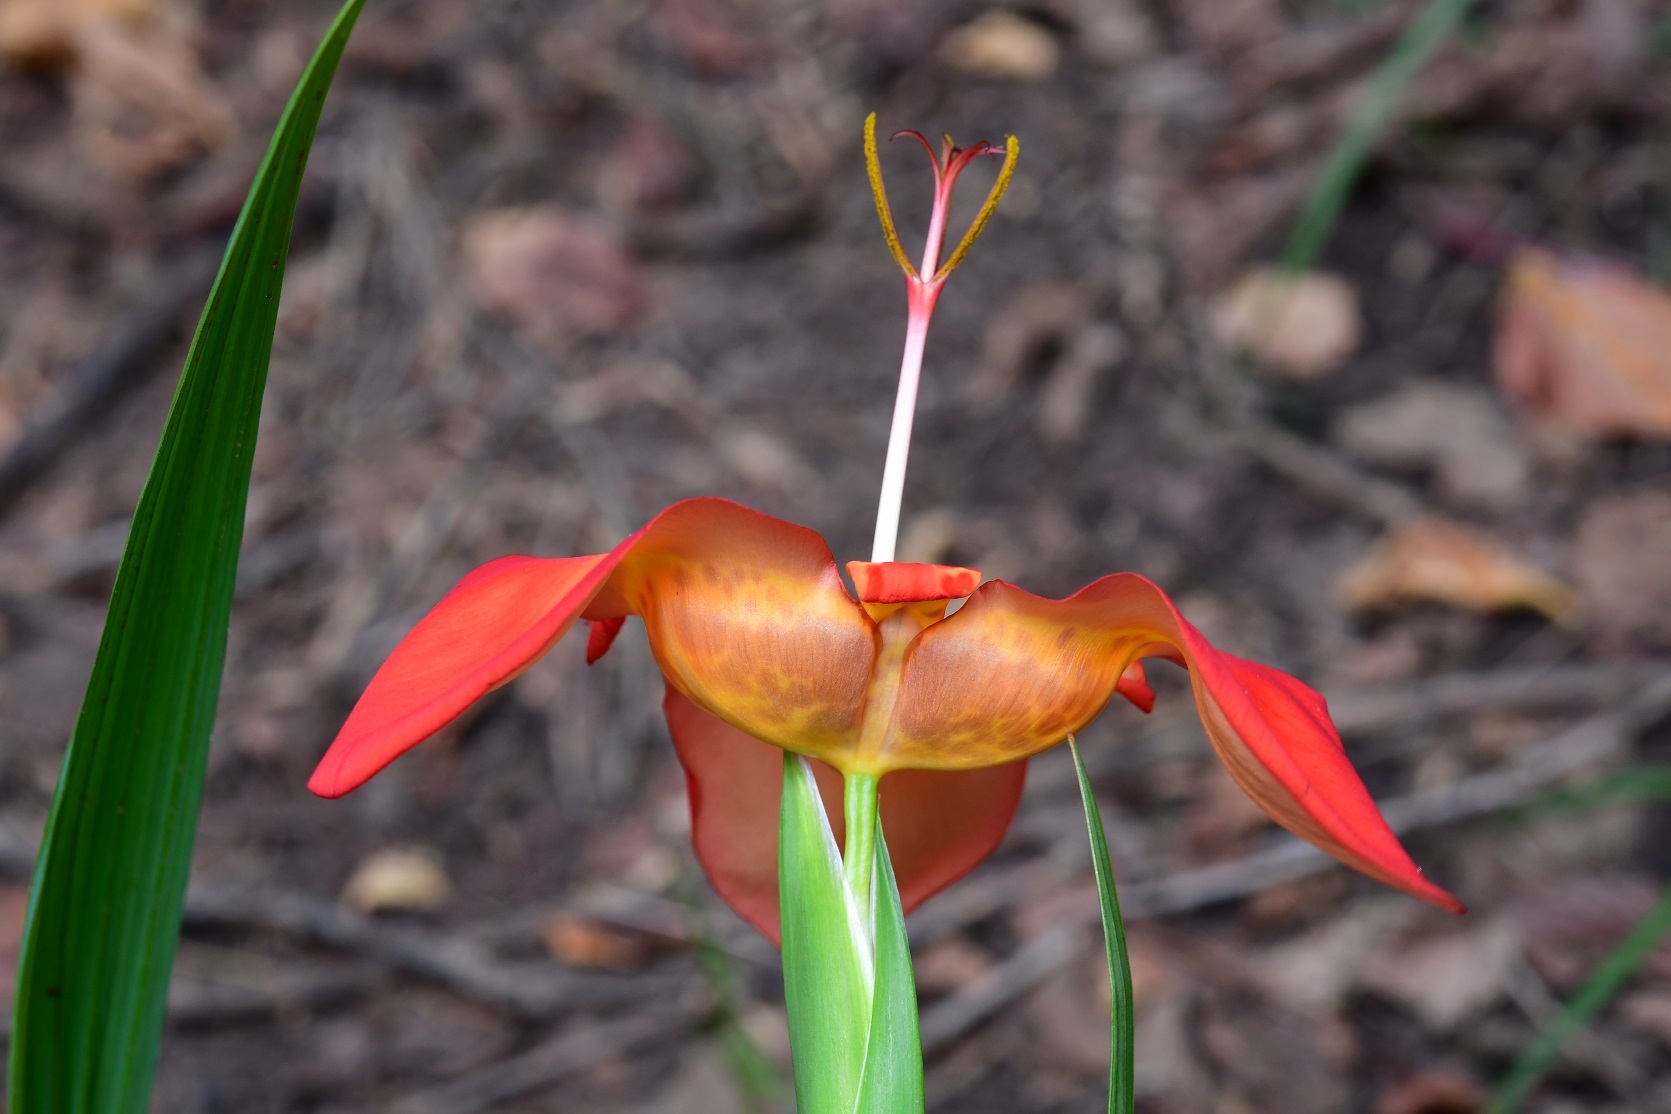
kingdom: Plantae
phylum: Tracheophyta
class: Liliopsida
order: Asparagales
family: Iridaceae
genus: Tigridia
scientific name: Tigridia pavonia
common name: Peacock-flower
